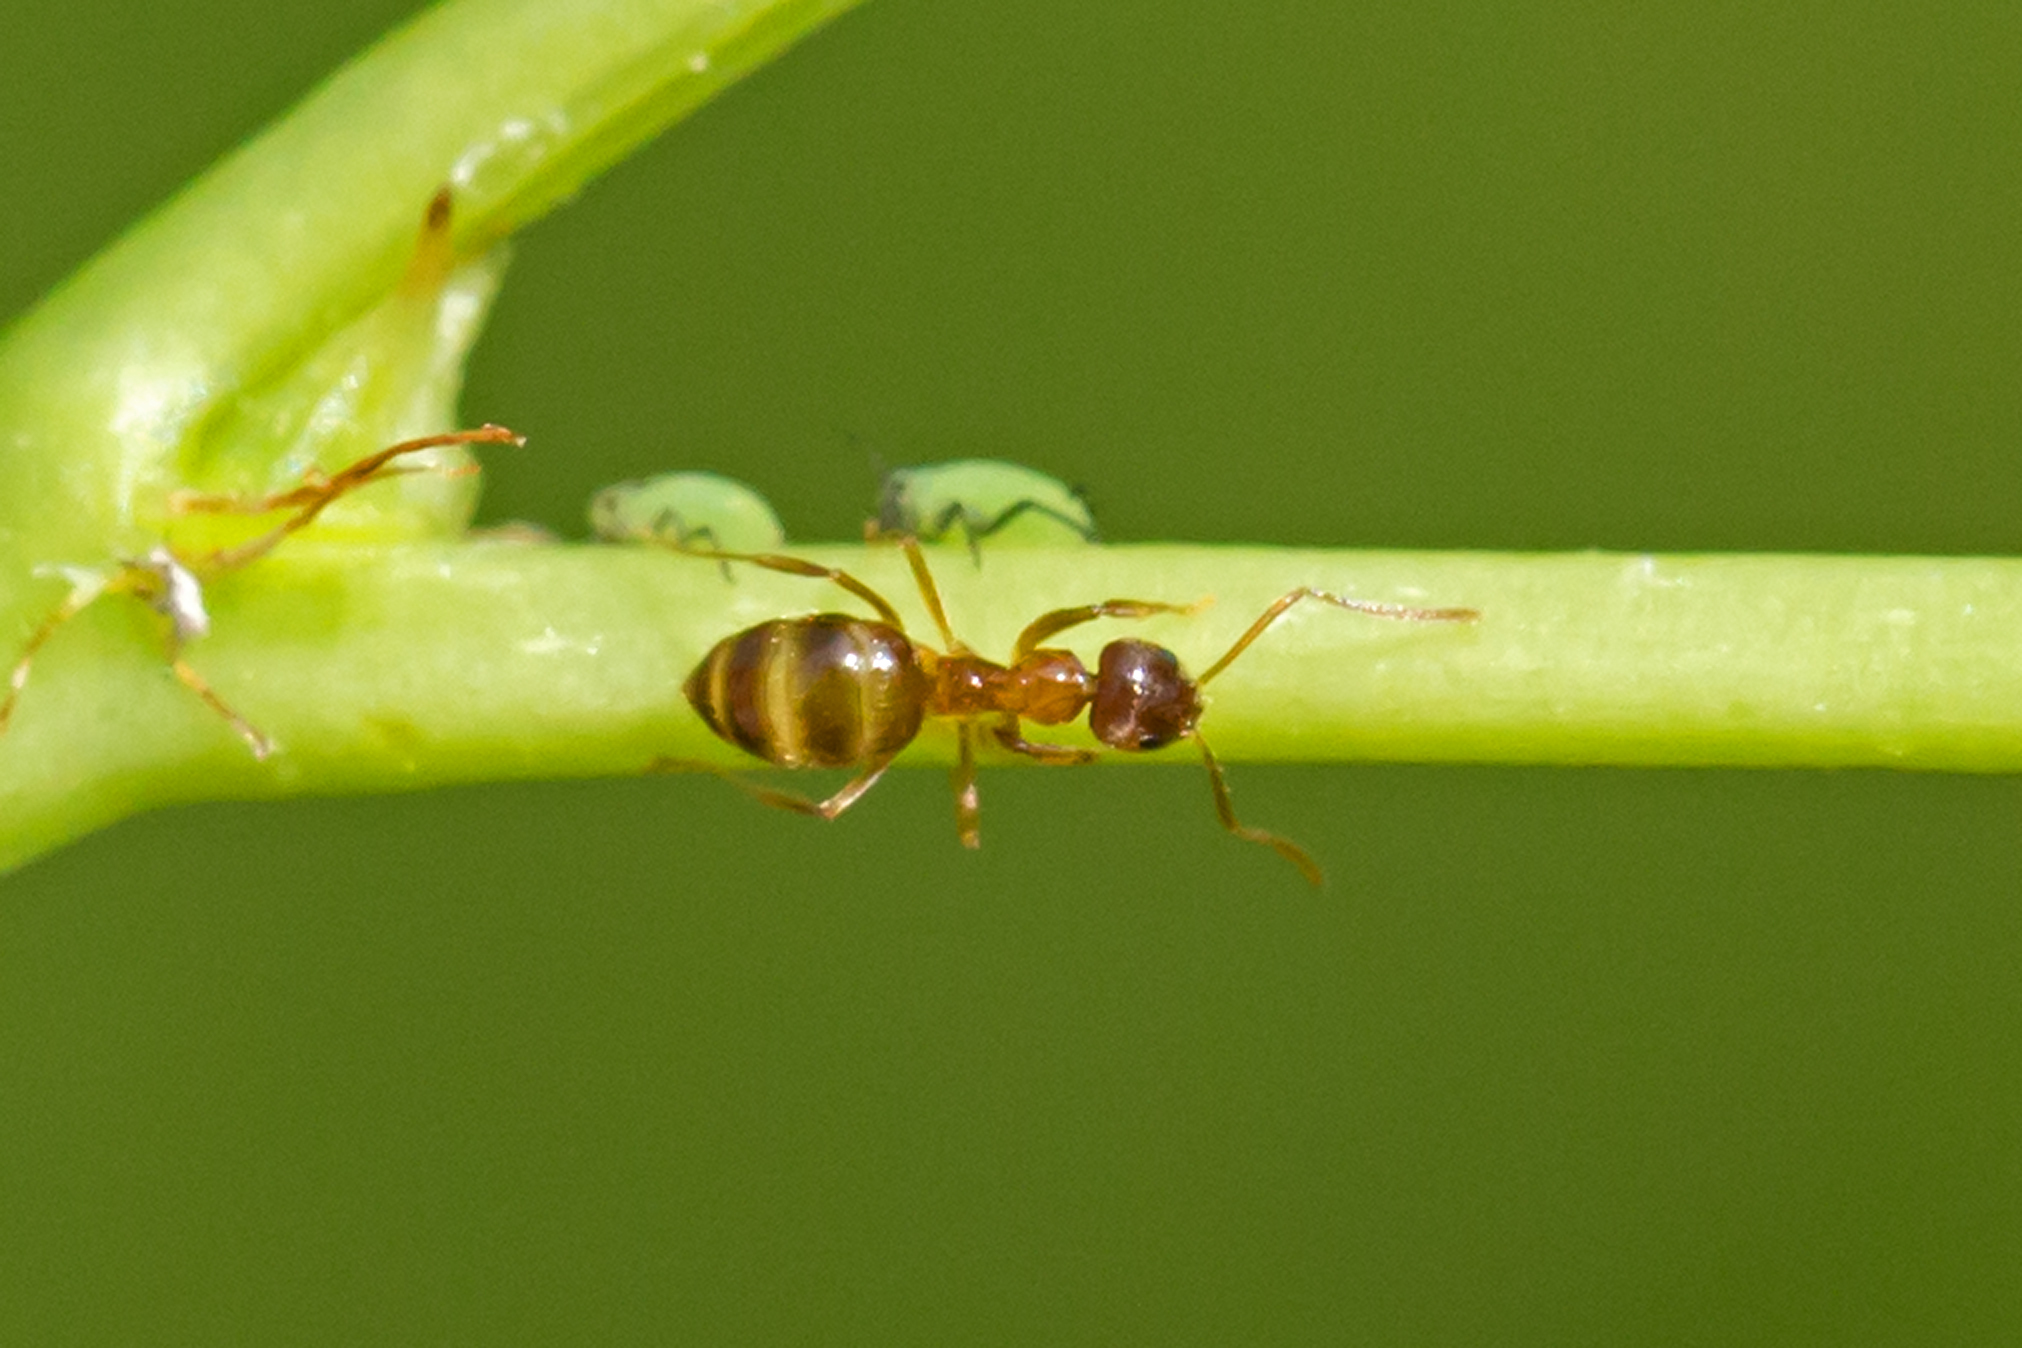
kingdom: Animalia
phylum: Arthropoda
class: Insecta
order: Hymenoptera
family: Formicidae
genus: Paratrechina
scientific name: Paratrechina flavipes
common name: Eastern asian formicine ant
